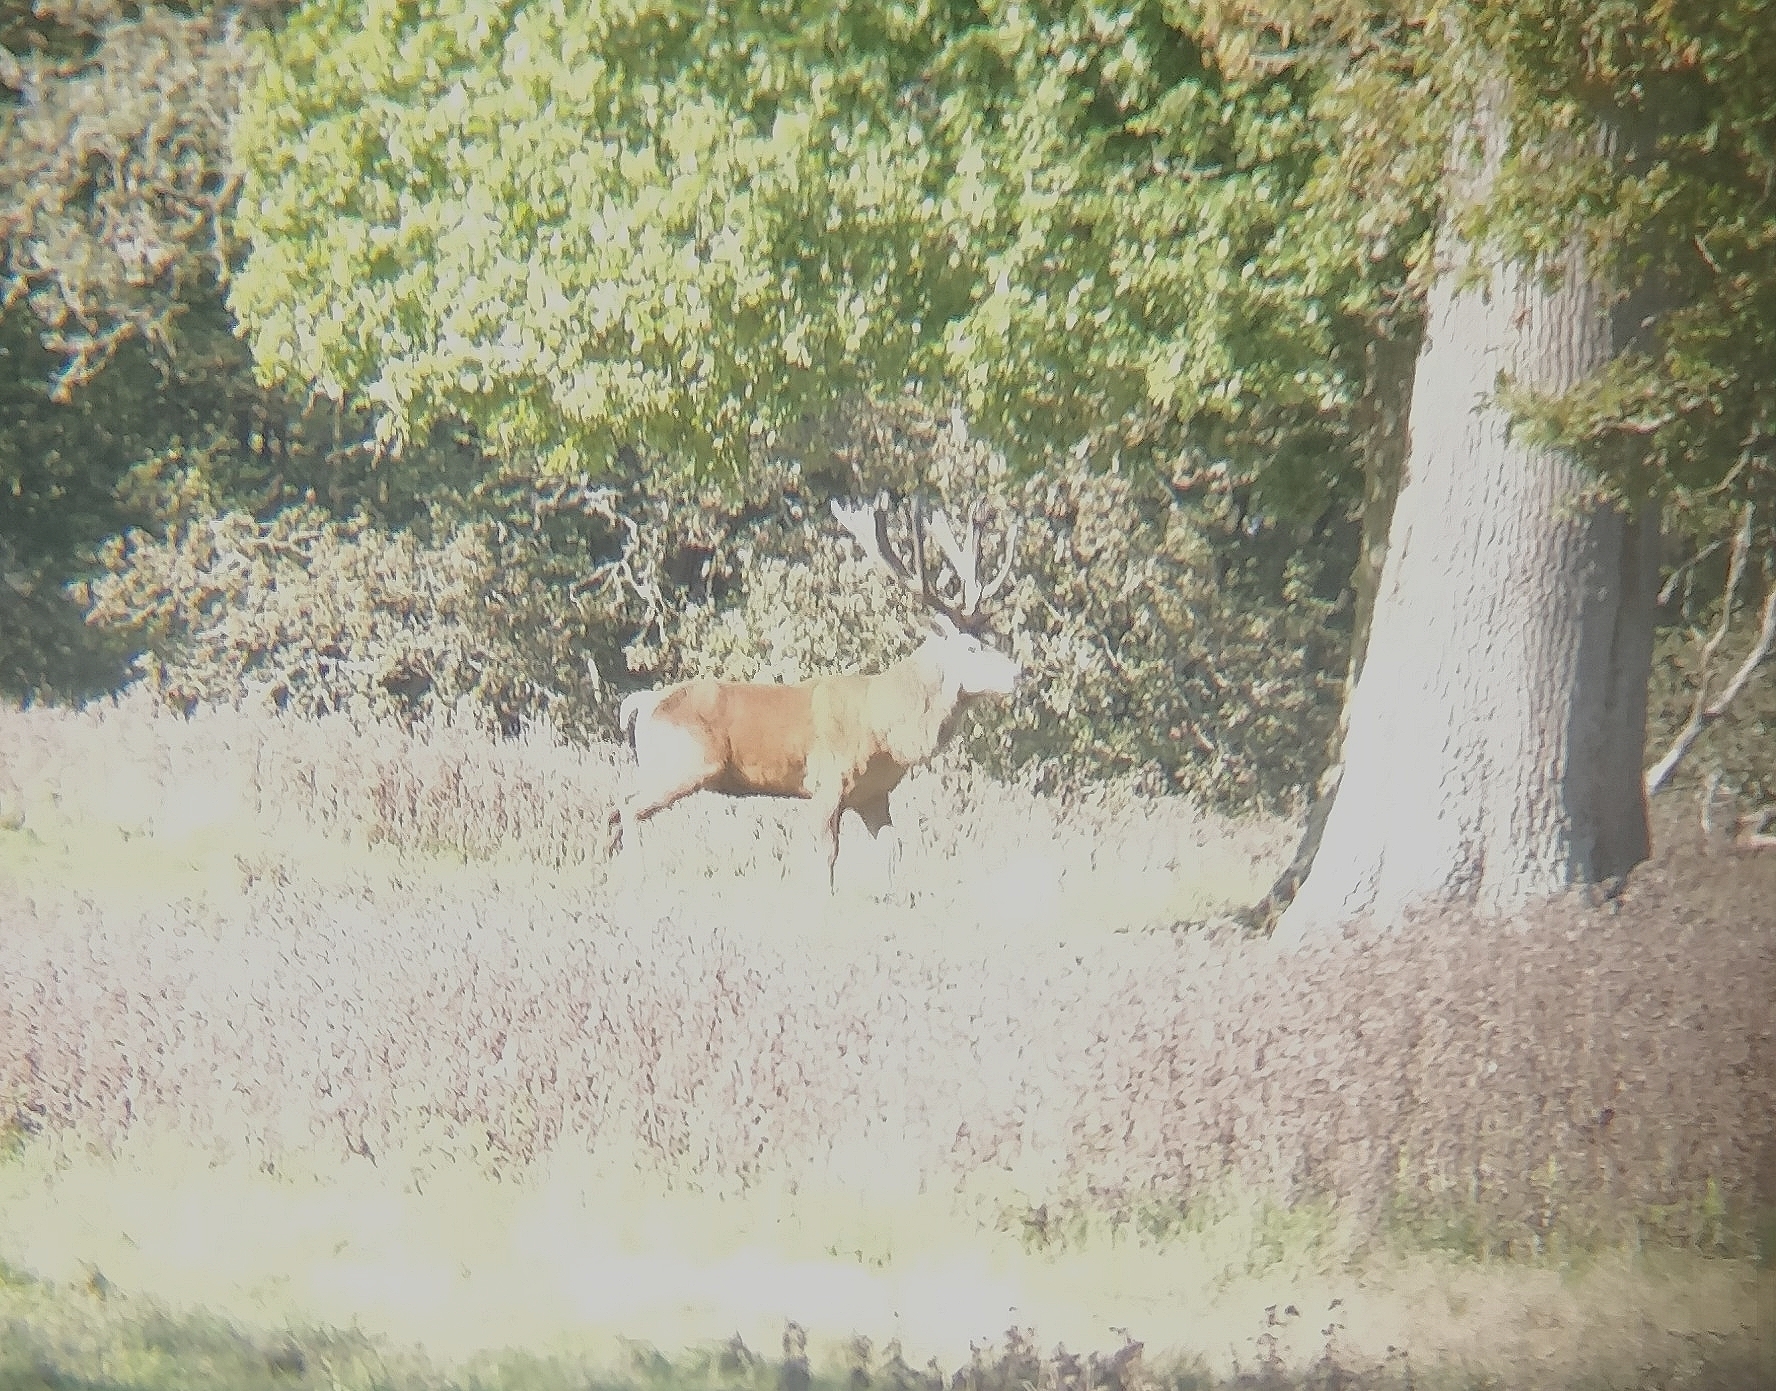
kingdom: Animalia
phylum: Chordata
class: Mammalia
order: Artiodactyla
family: Cervidae
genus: Cervus
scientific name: Cervus elaphus
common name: Red deer
